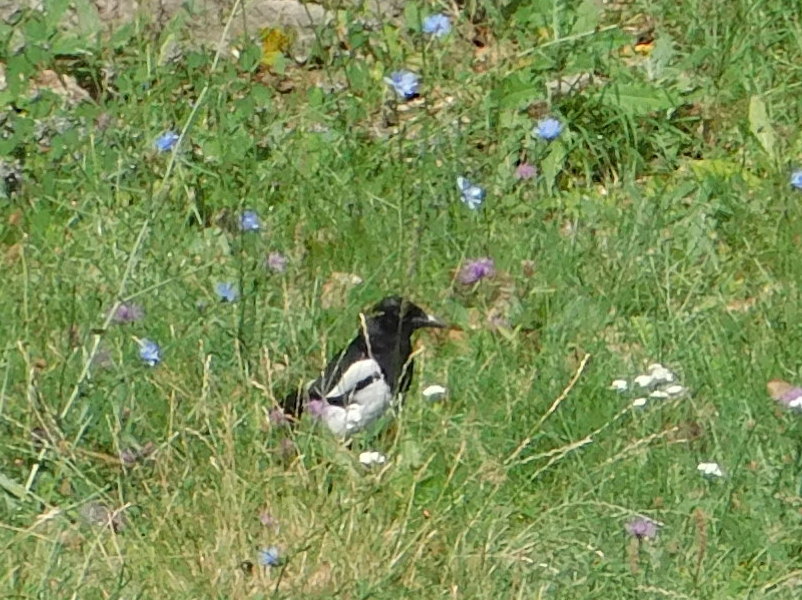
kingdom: Animalia
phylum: Chordata
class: Aves
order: Passeriformes
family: Corvidae
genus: Pica
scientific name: Pica pica
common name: Eurasian magpie
